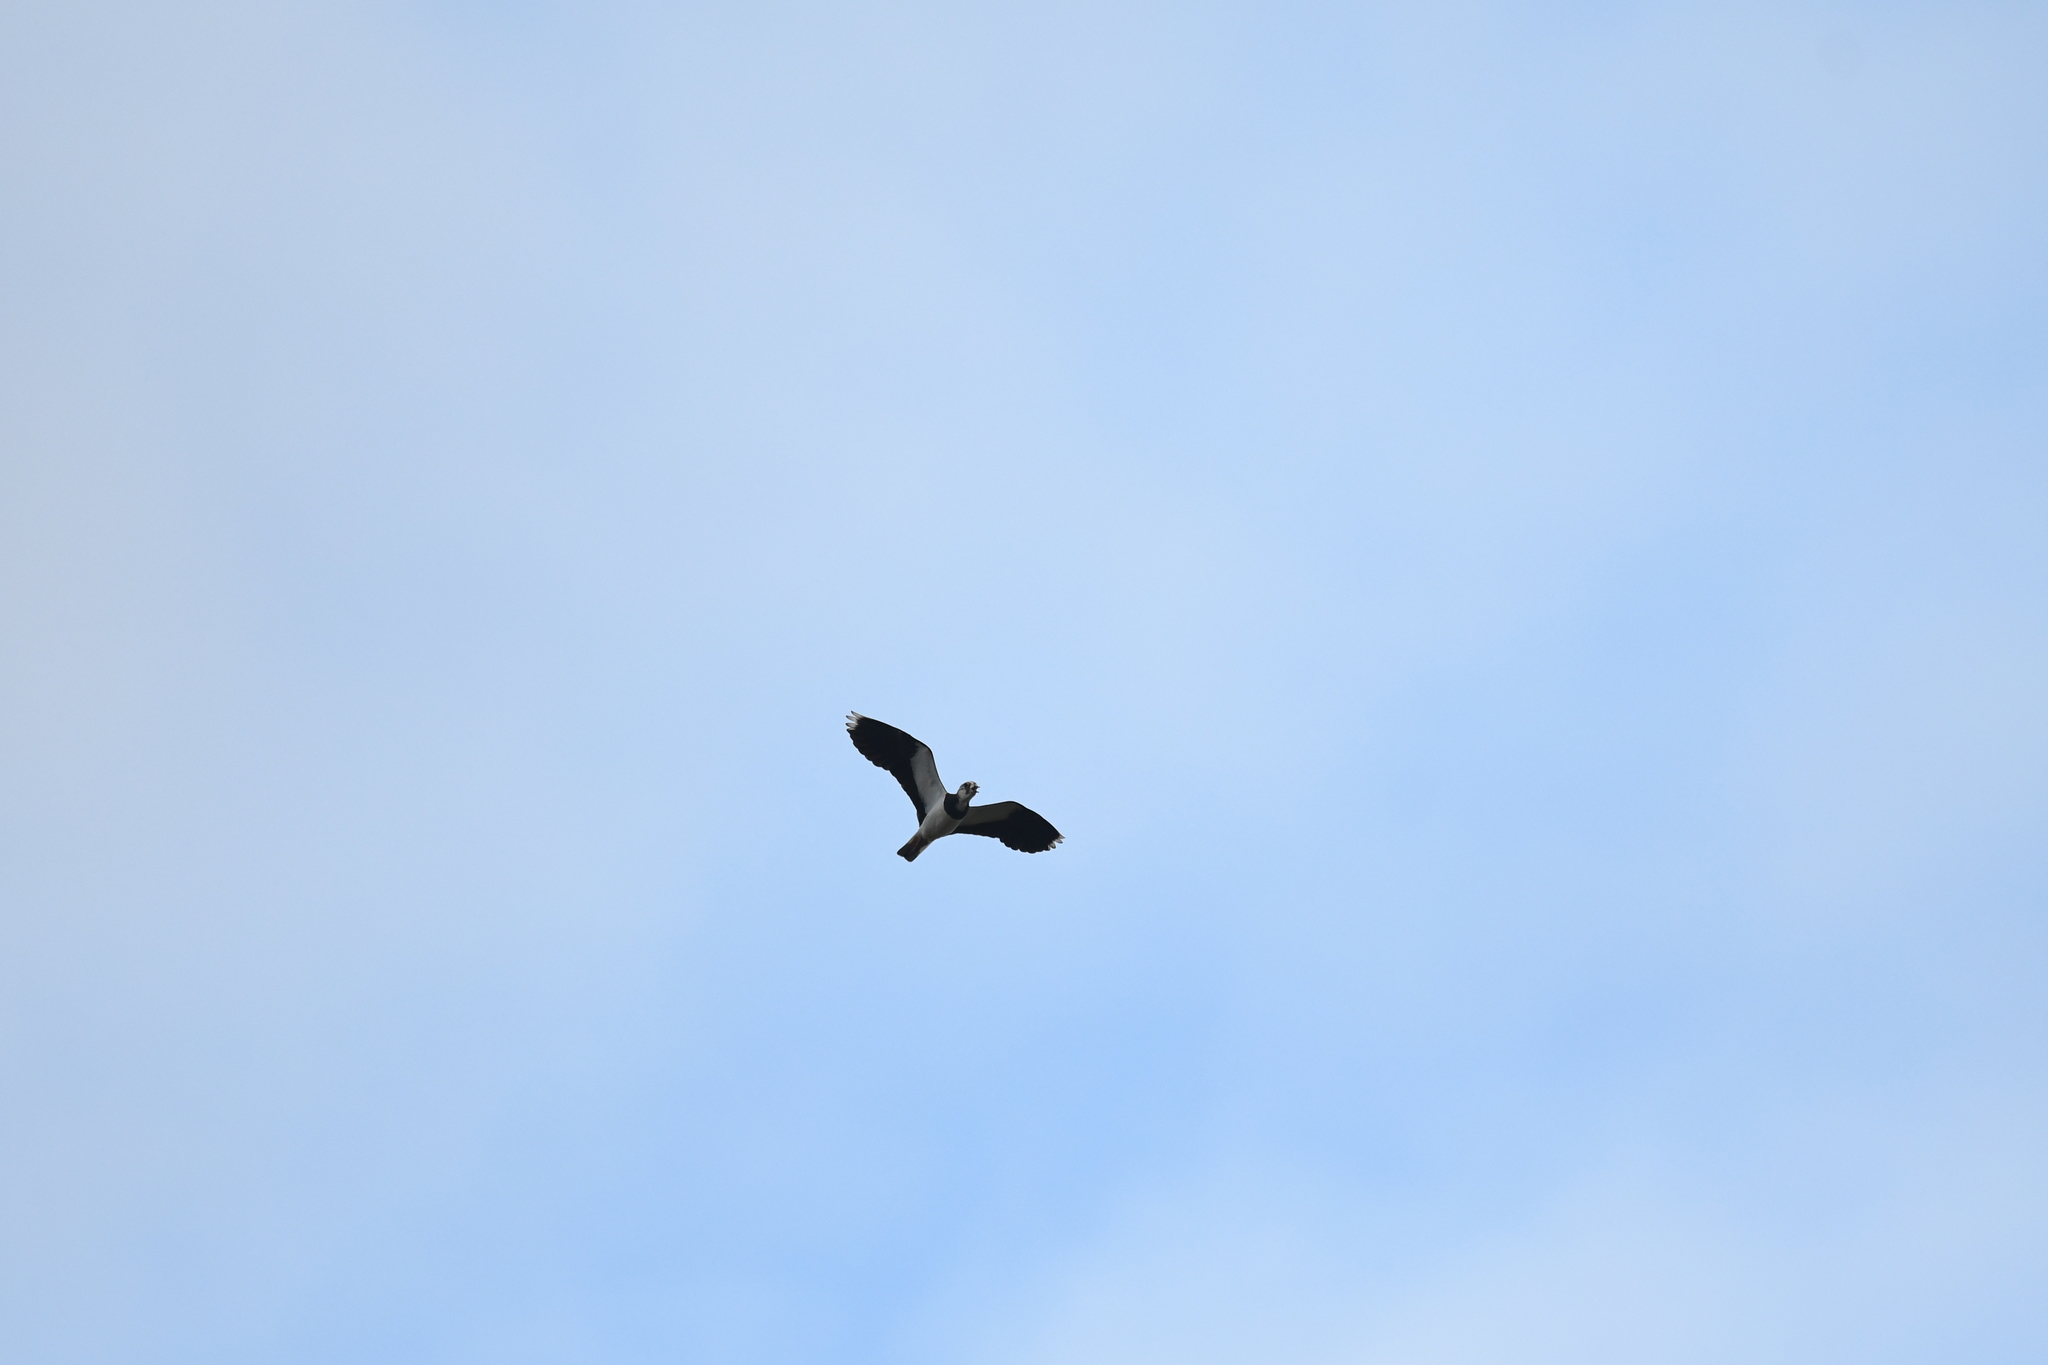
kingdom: Animalia
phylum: Chordata
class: Aves
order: Charadriiformes
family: Charadriidae
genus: Vanellus
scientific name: Vanellus vanellus
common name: Northern lapwing
